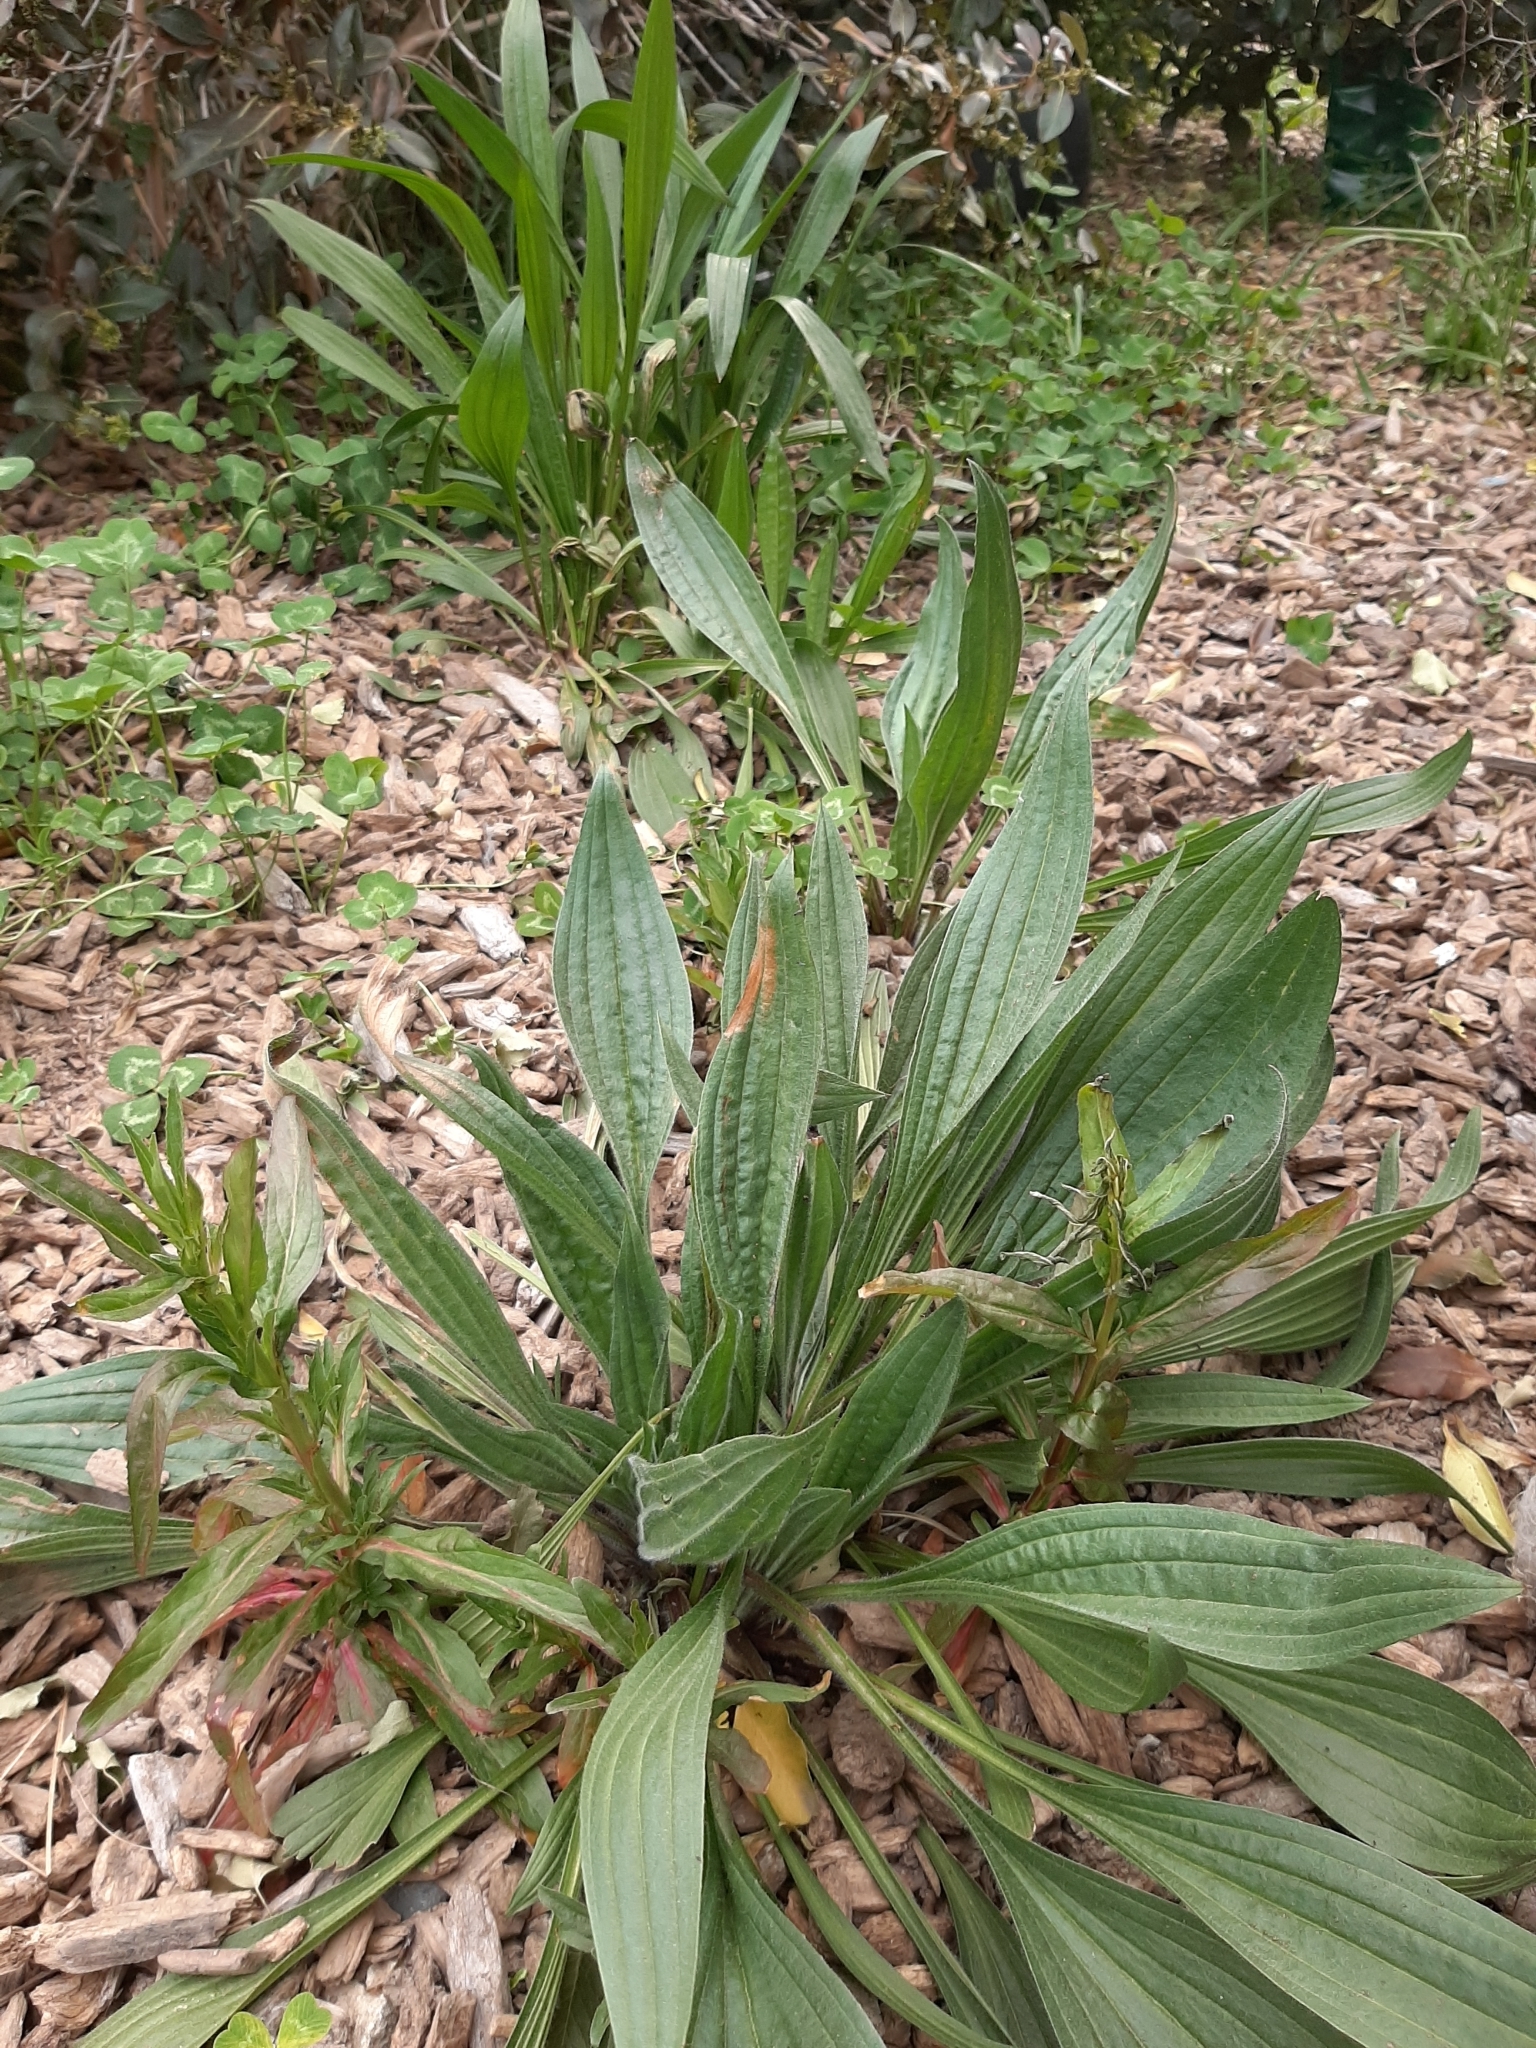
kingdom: Plantae
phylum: Tracheophyta
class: Magnoliopsida
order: Lamiales
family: Plantaginaceae
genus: Plantago
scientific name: Plantago lanceolata
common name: Ribwort plantain
